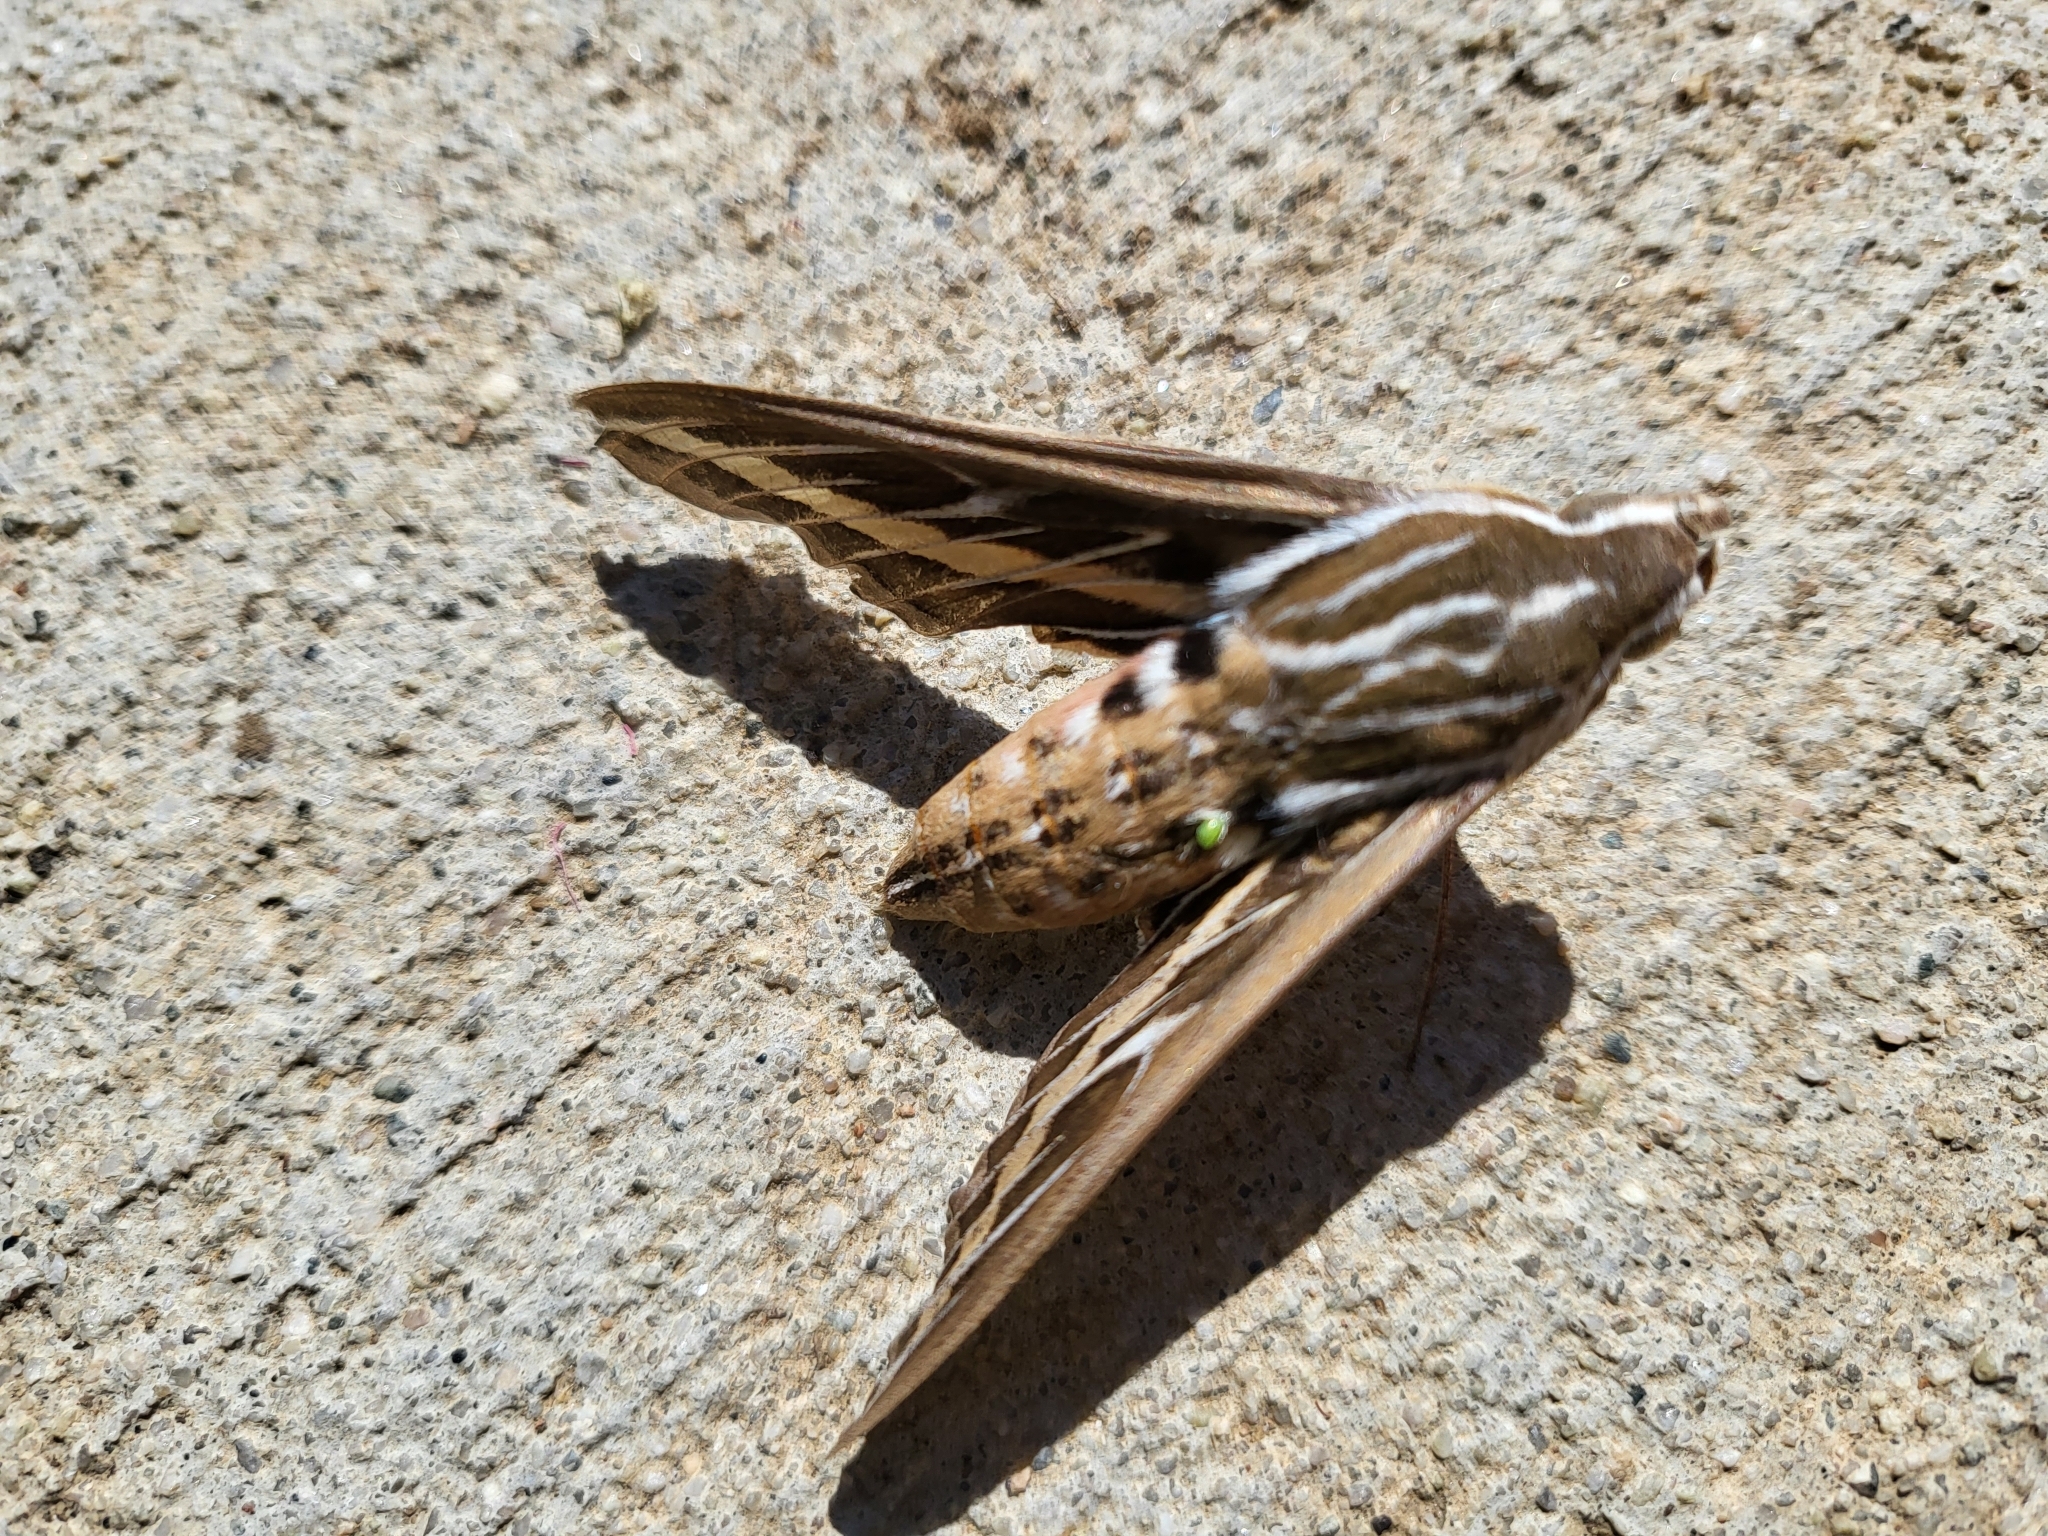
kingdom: Animalia
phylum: Arthropoda
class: Insecta
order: Lepidoptera
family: Sphingidae
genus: Hyles
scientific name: Hyles lineata
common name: White-lined sphinx
